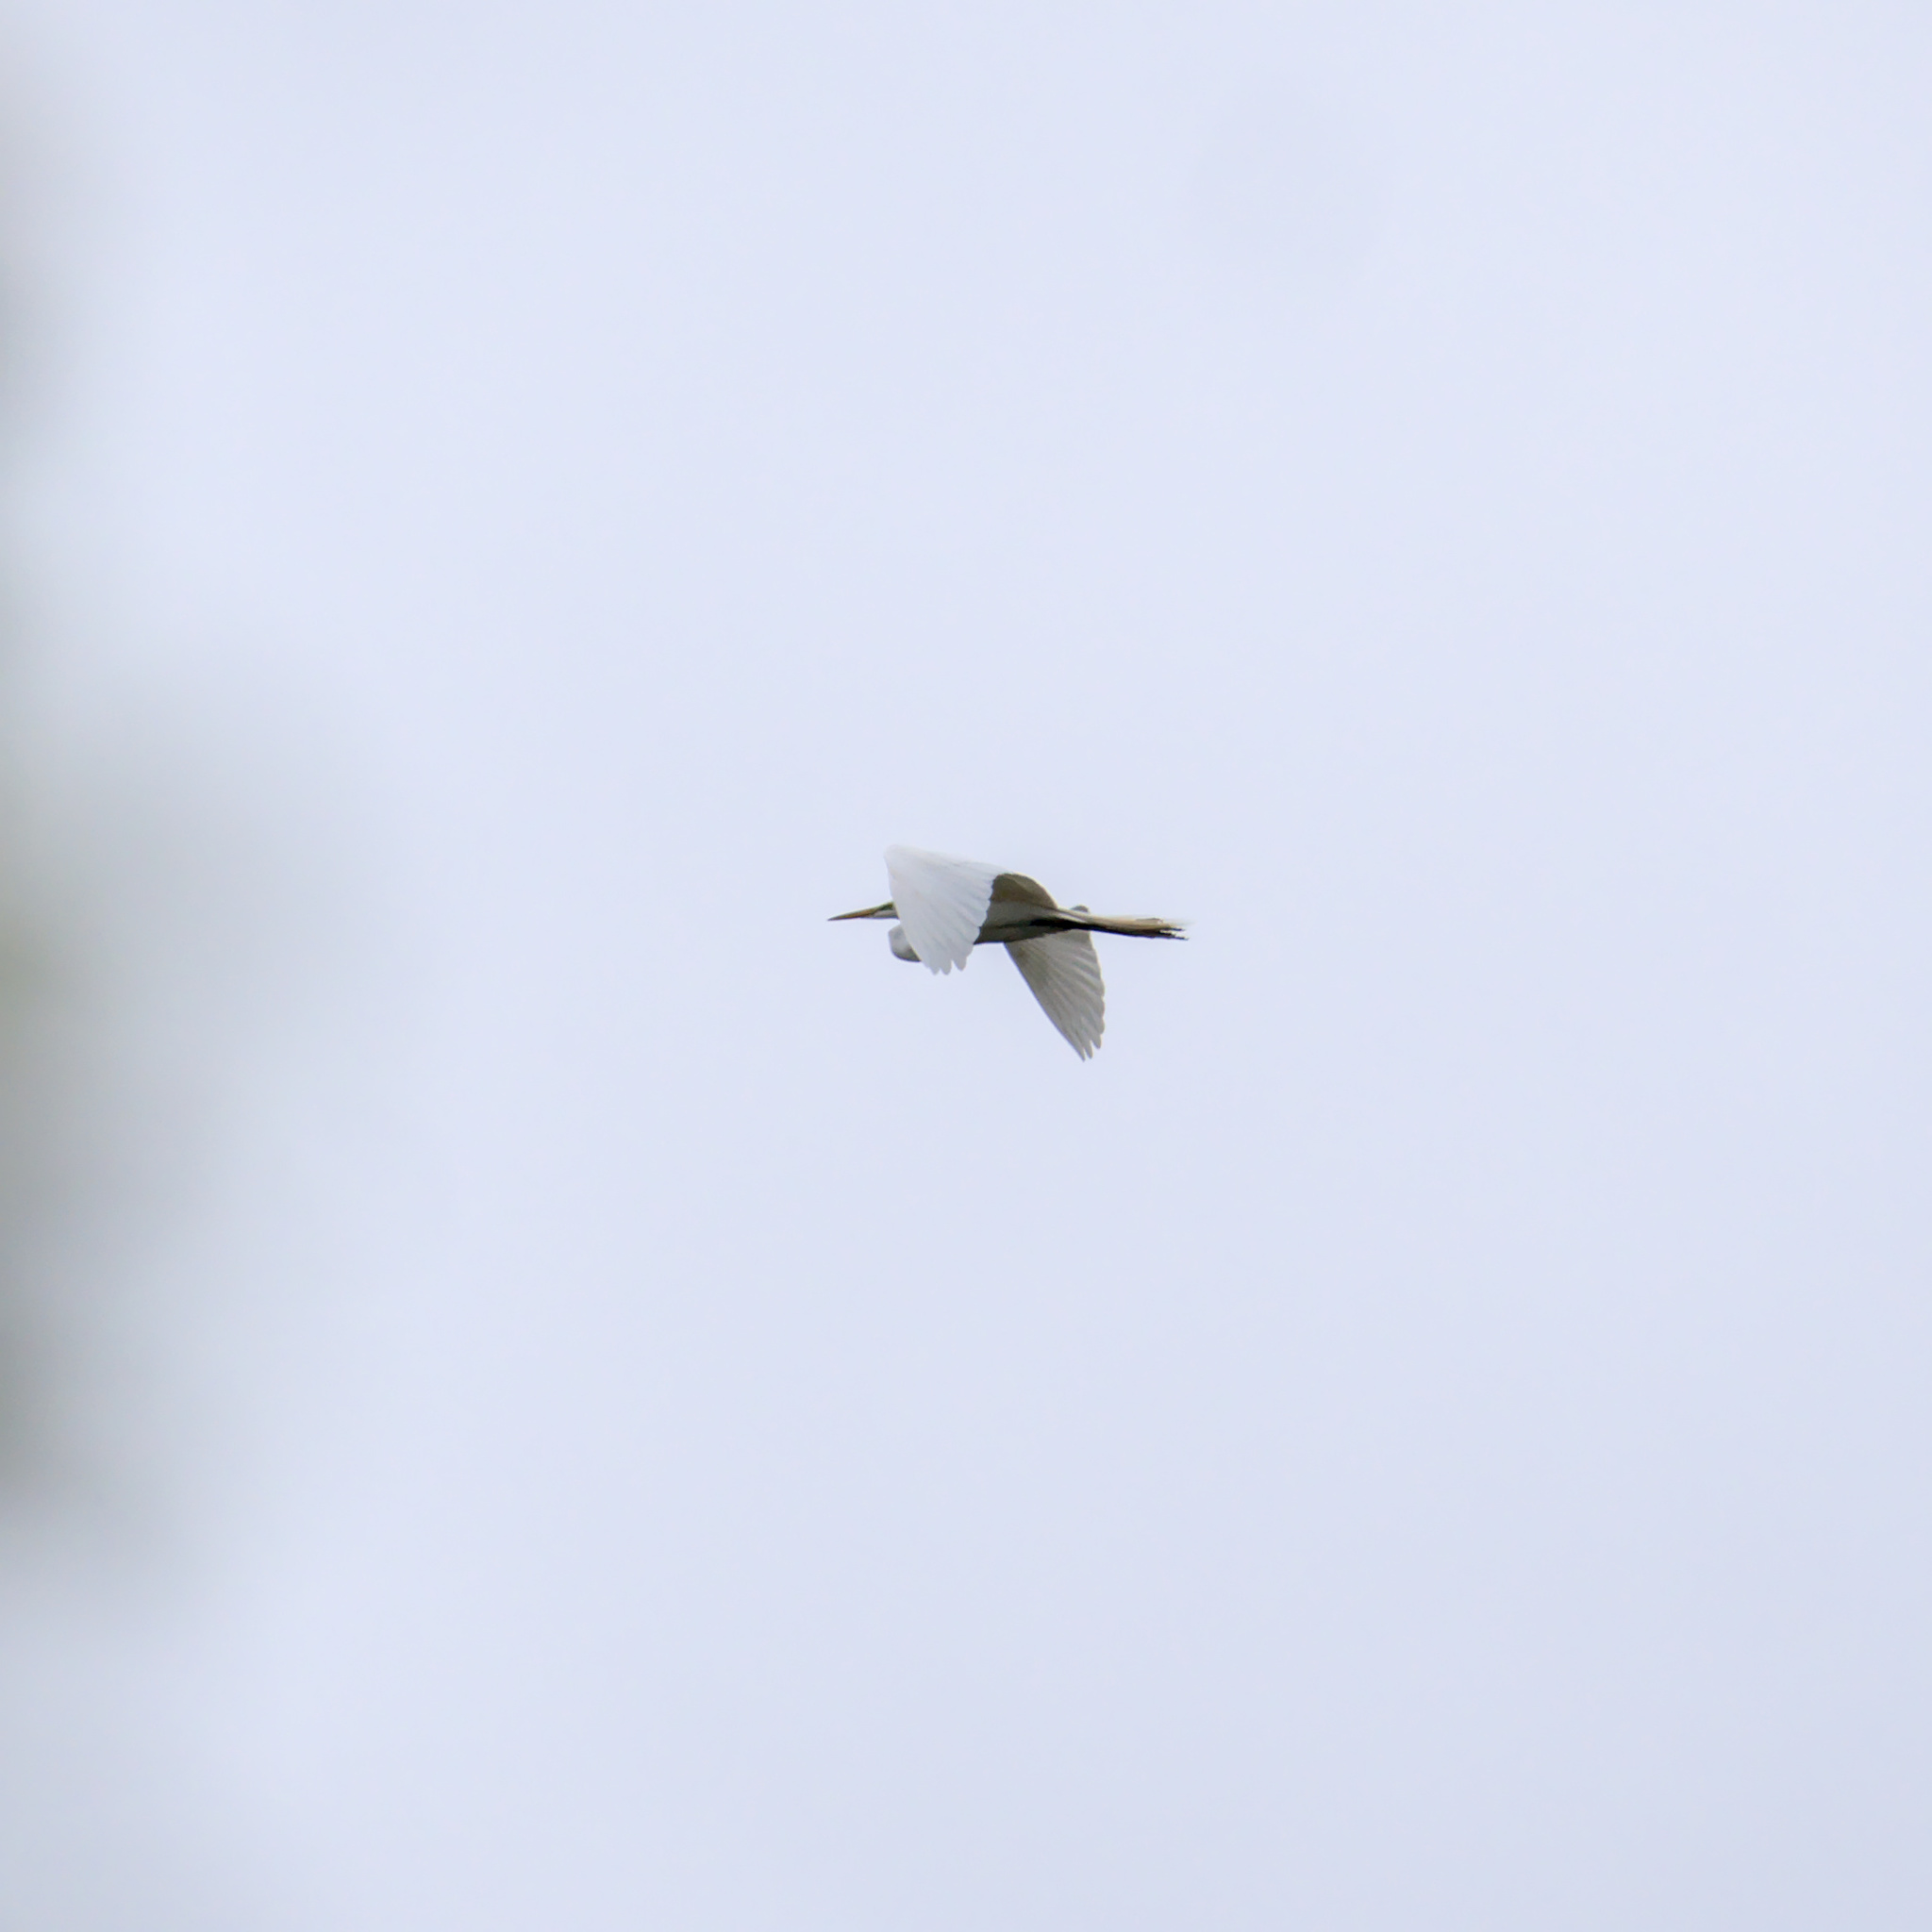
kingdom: Animalia
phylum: Chordata
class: Aves
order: Pelecaniformes
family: Ardeidae
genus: Ardea
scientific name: Ardea alba
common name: Great egret
